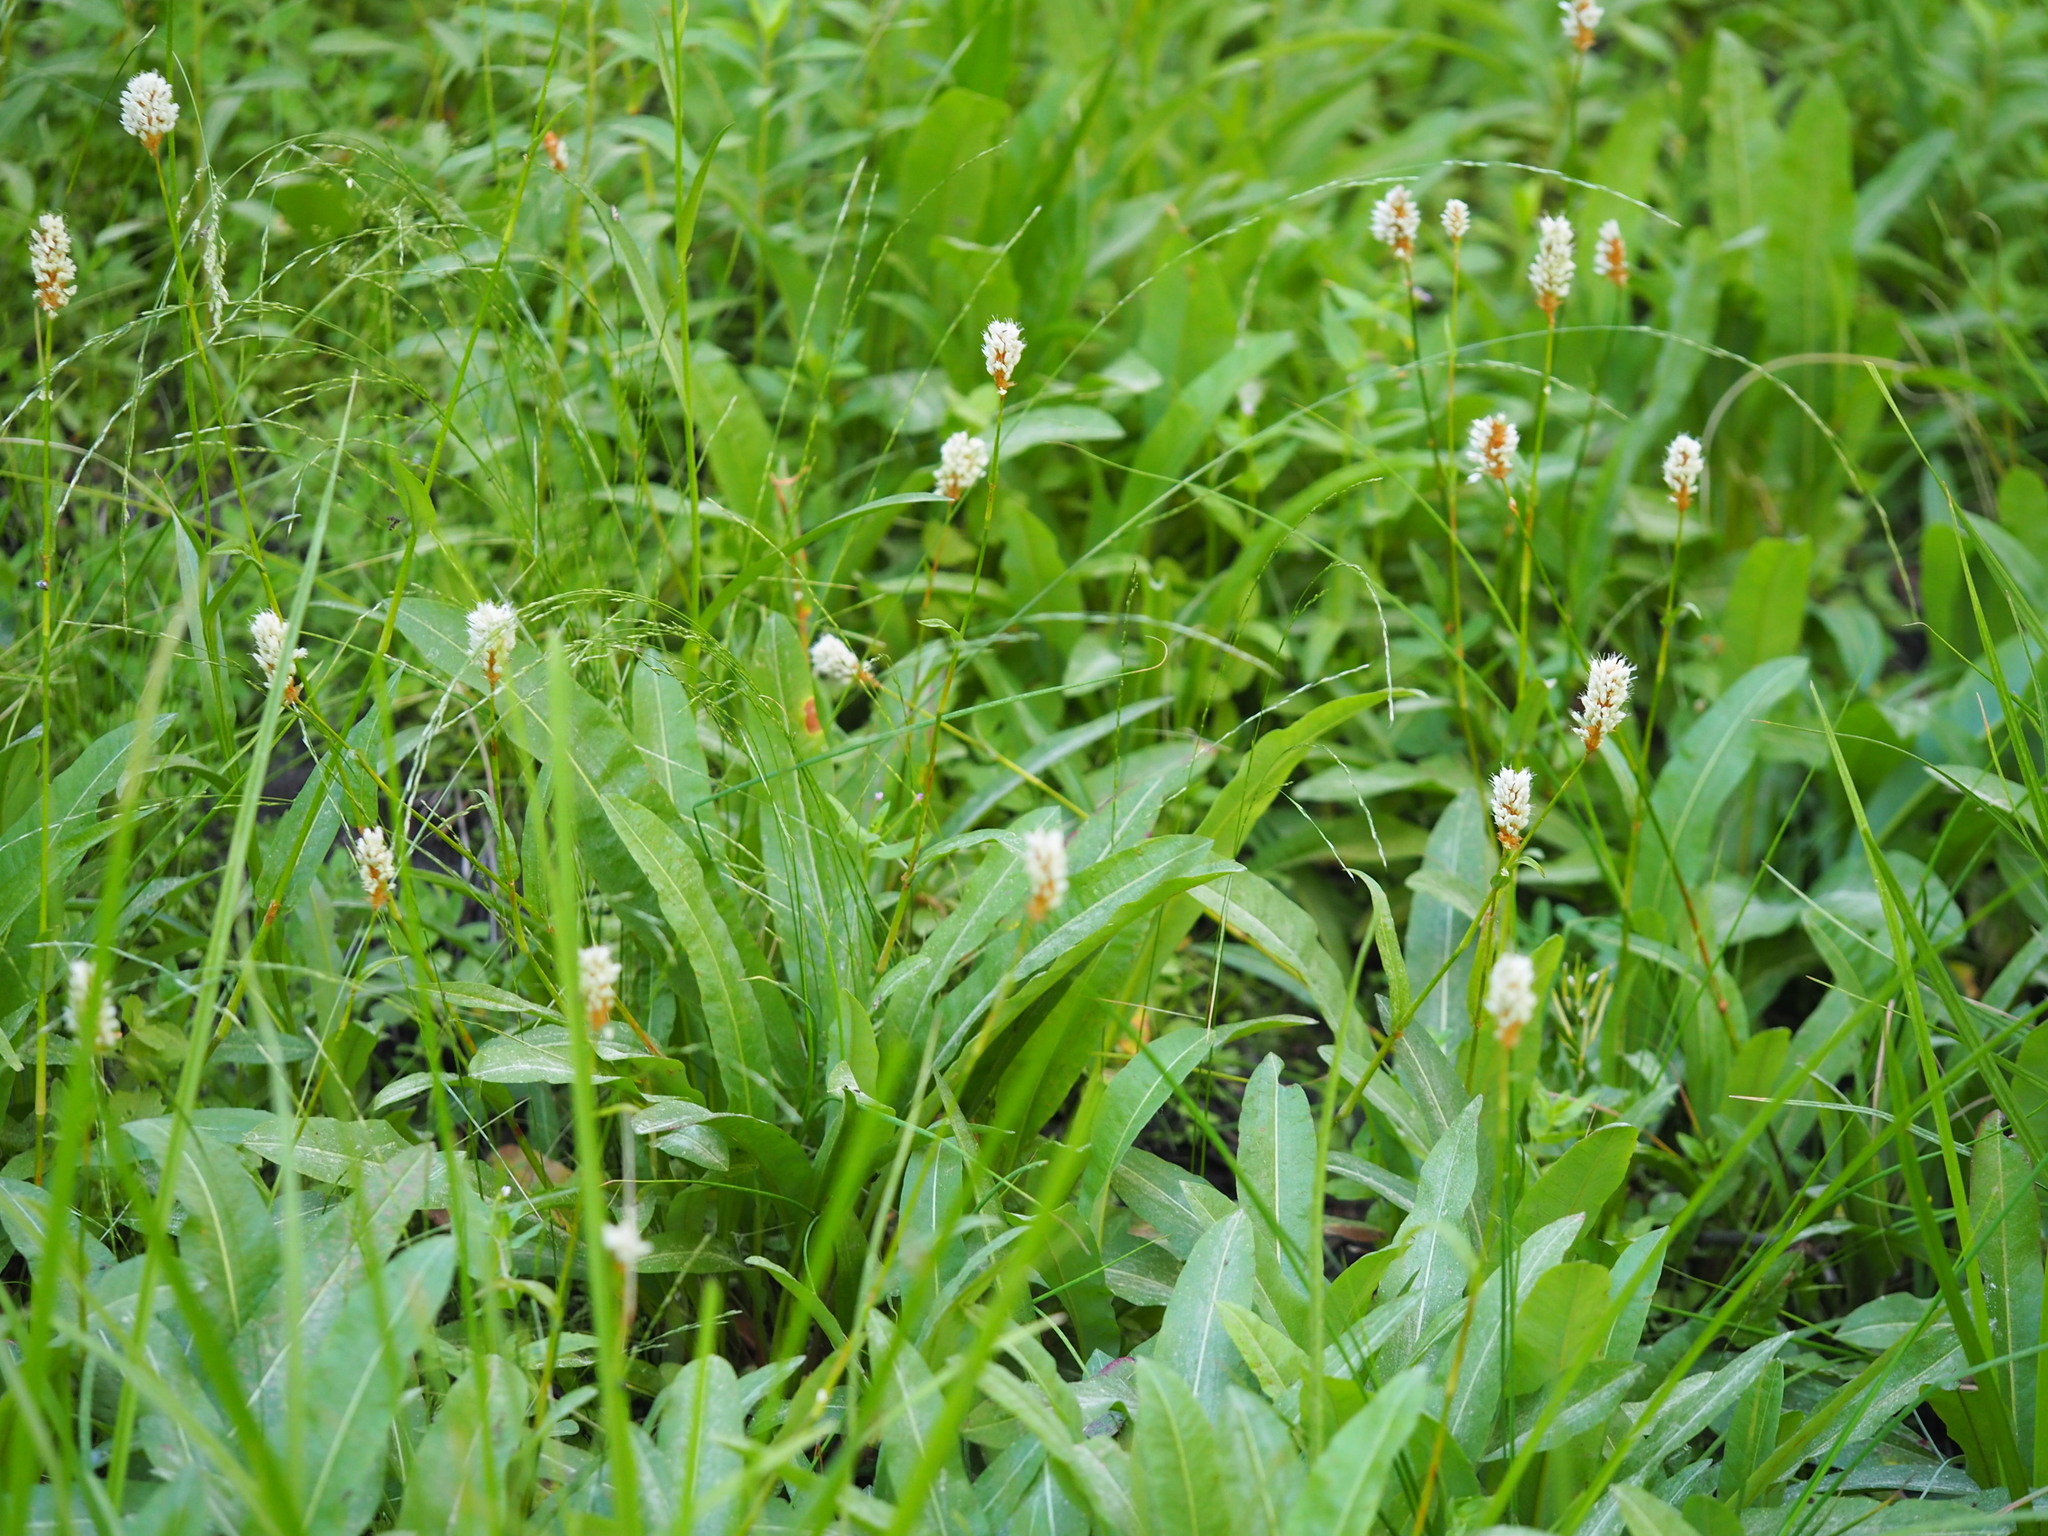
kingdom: Plantae
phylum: Tracheophyta
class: Magnoliopsida
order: Caryophyllales
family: Polygonaceae
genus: Bistorta
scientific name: Bistorta bistortoides
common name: American bistort
